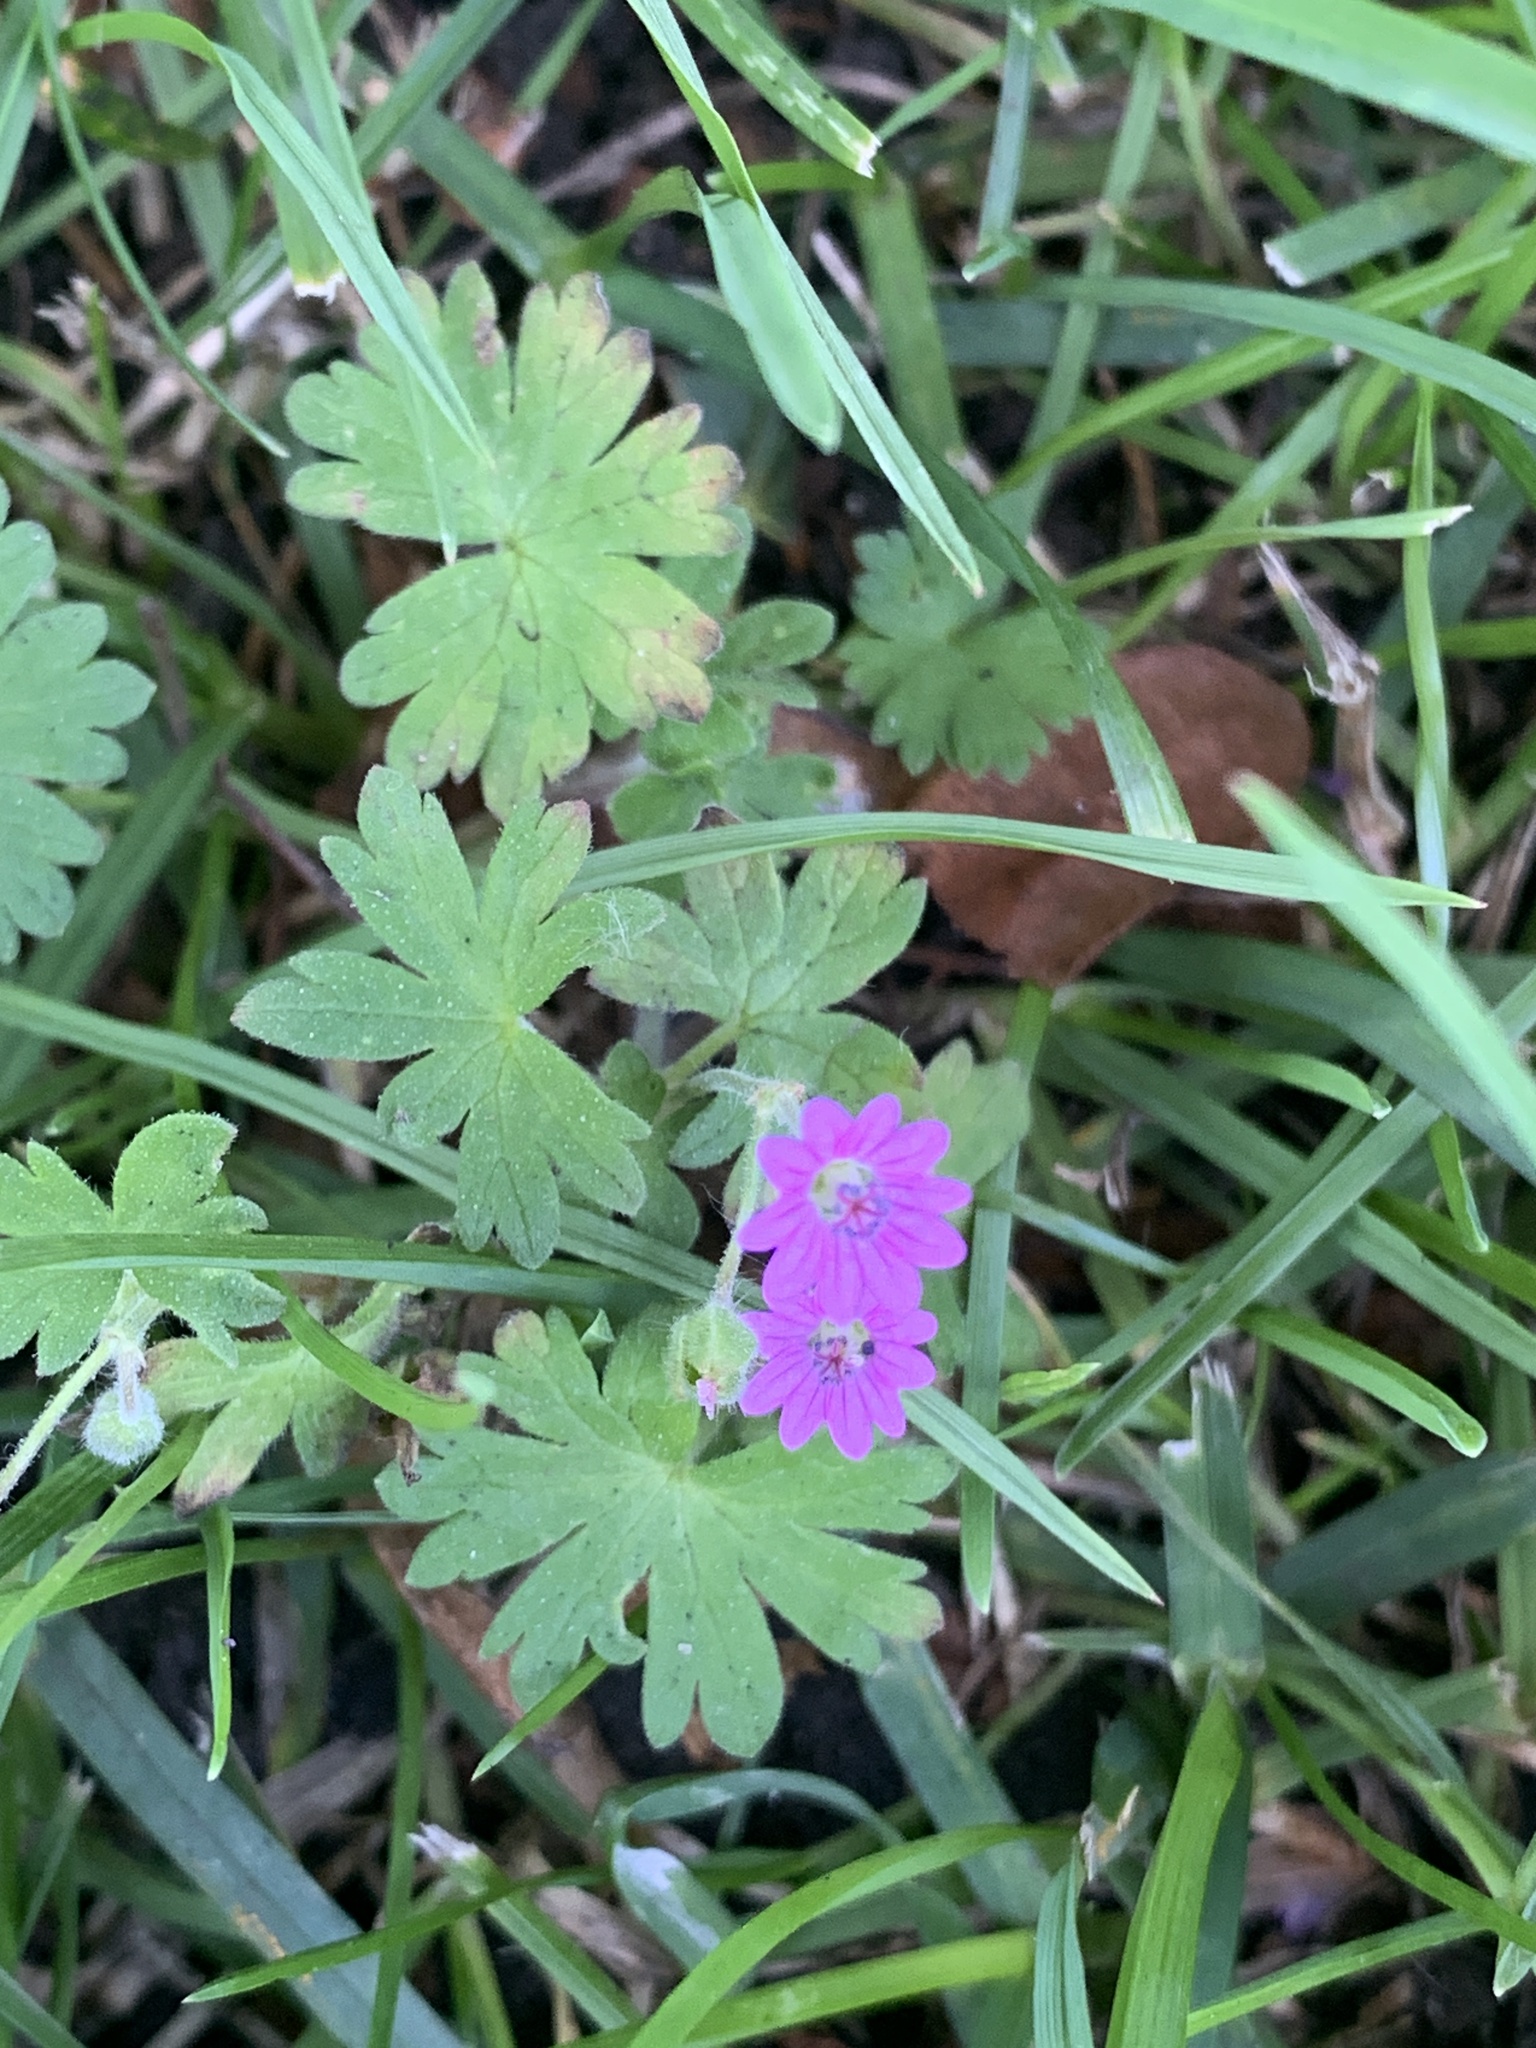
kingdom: Plantae
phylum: Tracheophyta
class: Magnoliopsida
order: Geraniales
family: Geraniaceae
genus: Geranium
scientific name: Geranium molle
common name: Dove's-foot crane's-bill
